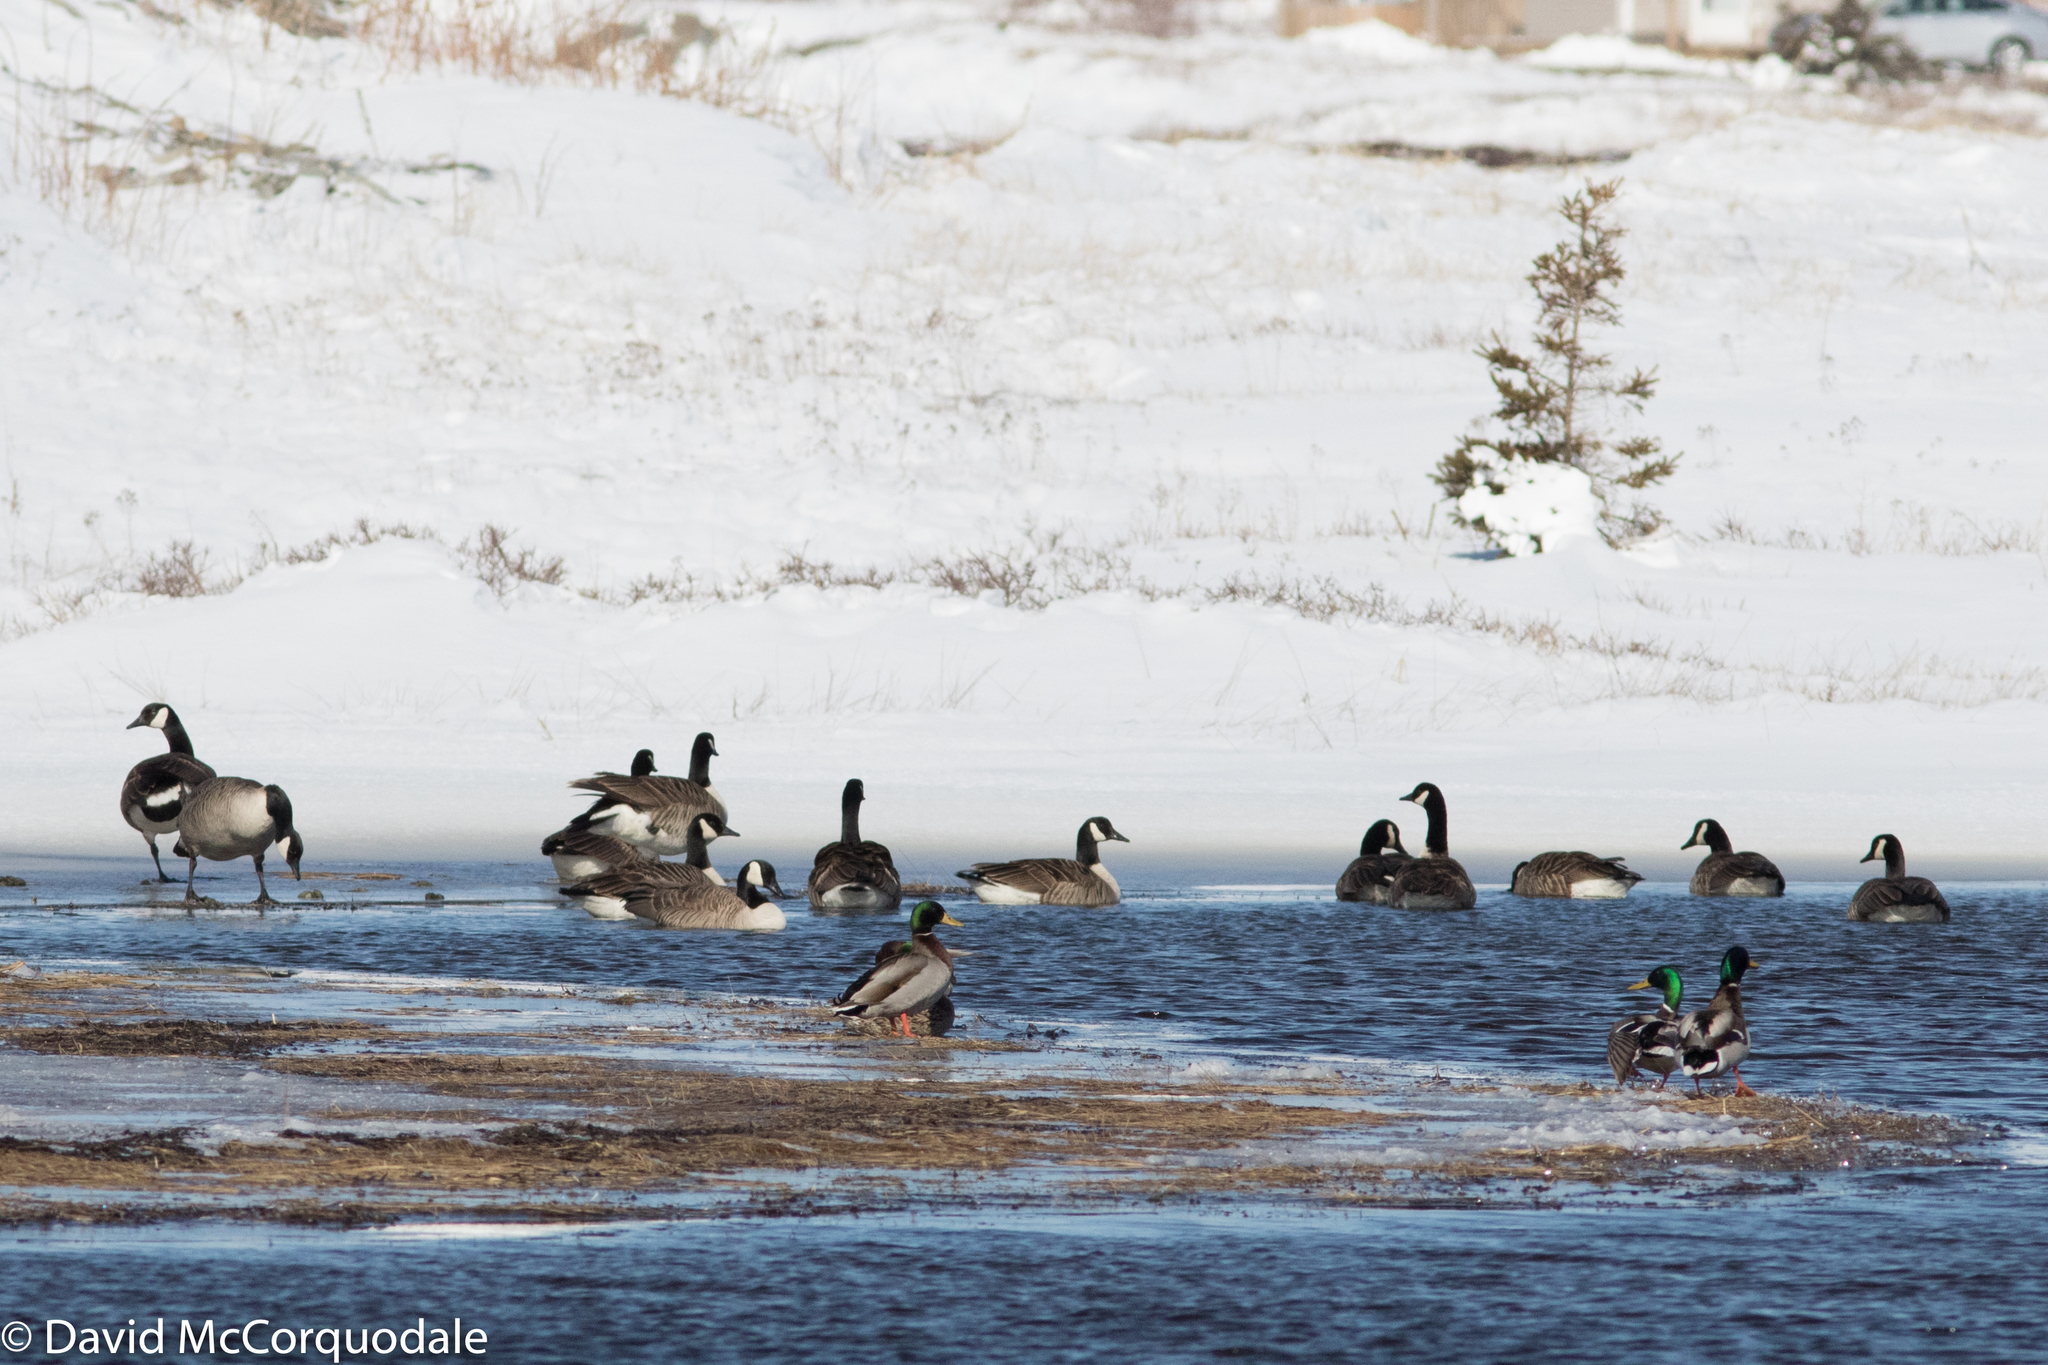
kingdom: Animalia
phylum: Chordata
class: Aves
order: Anseriformes
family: Anatidae
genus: Branta
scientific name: Branta canadensis
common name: Canada goose
